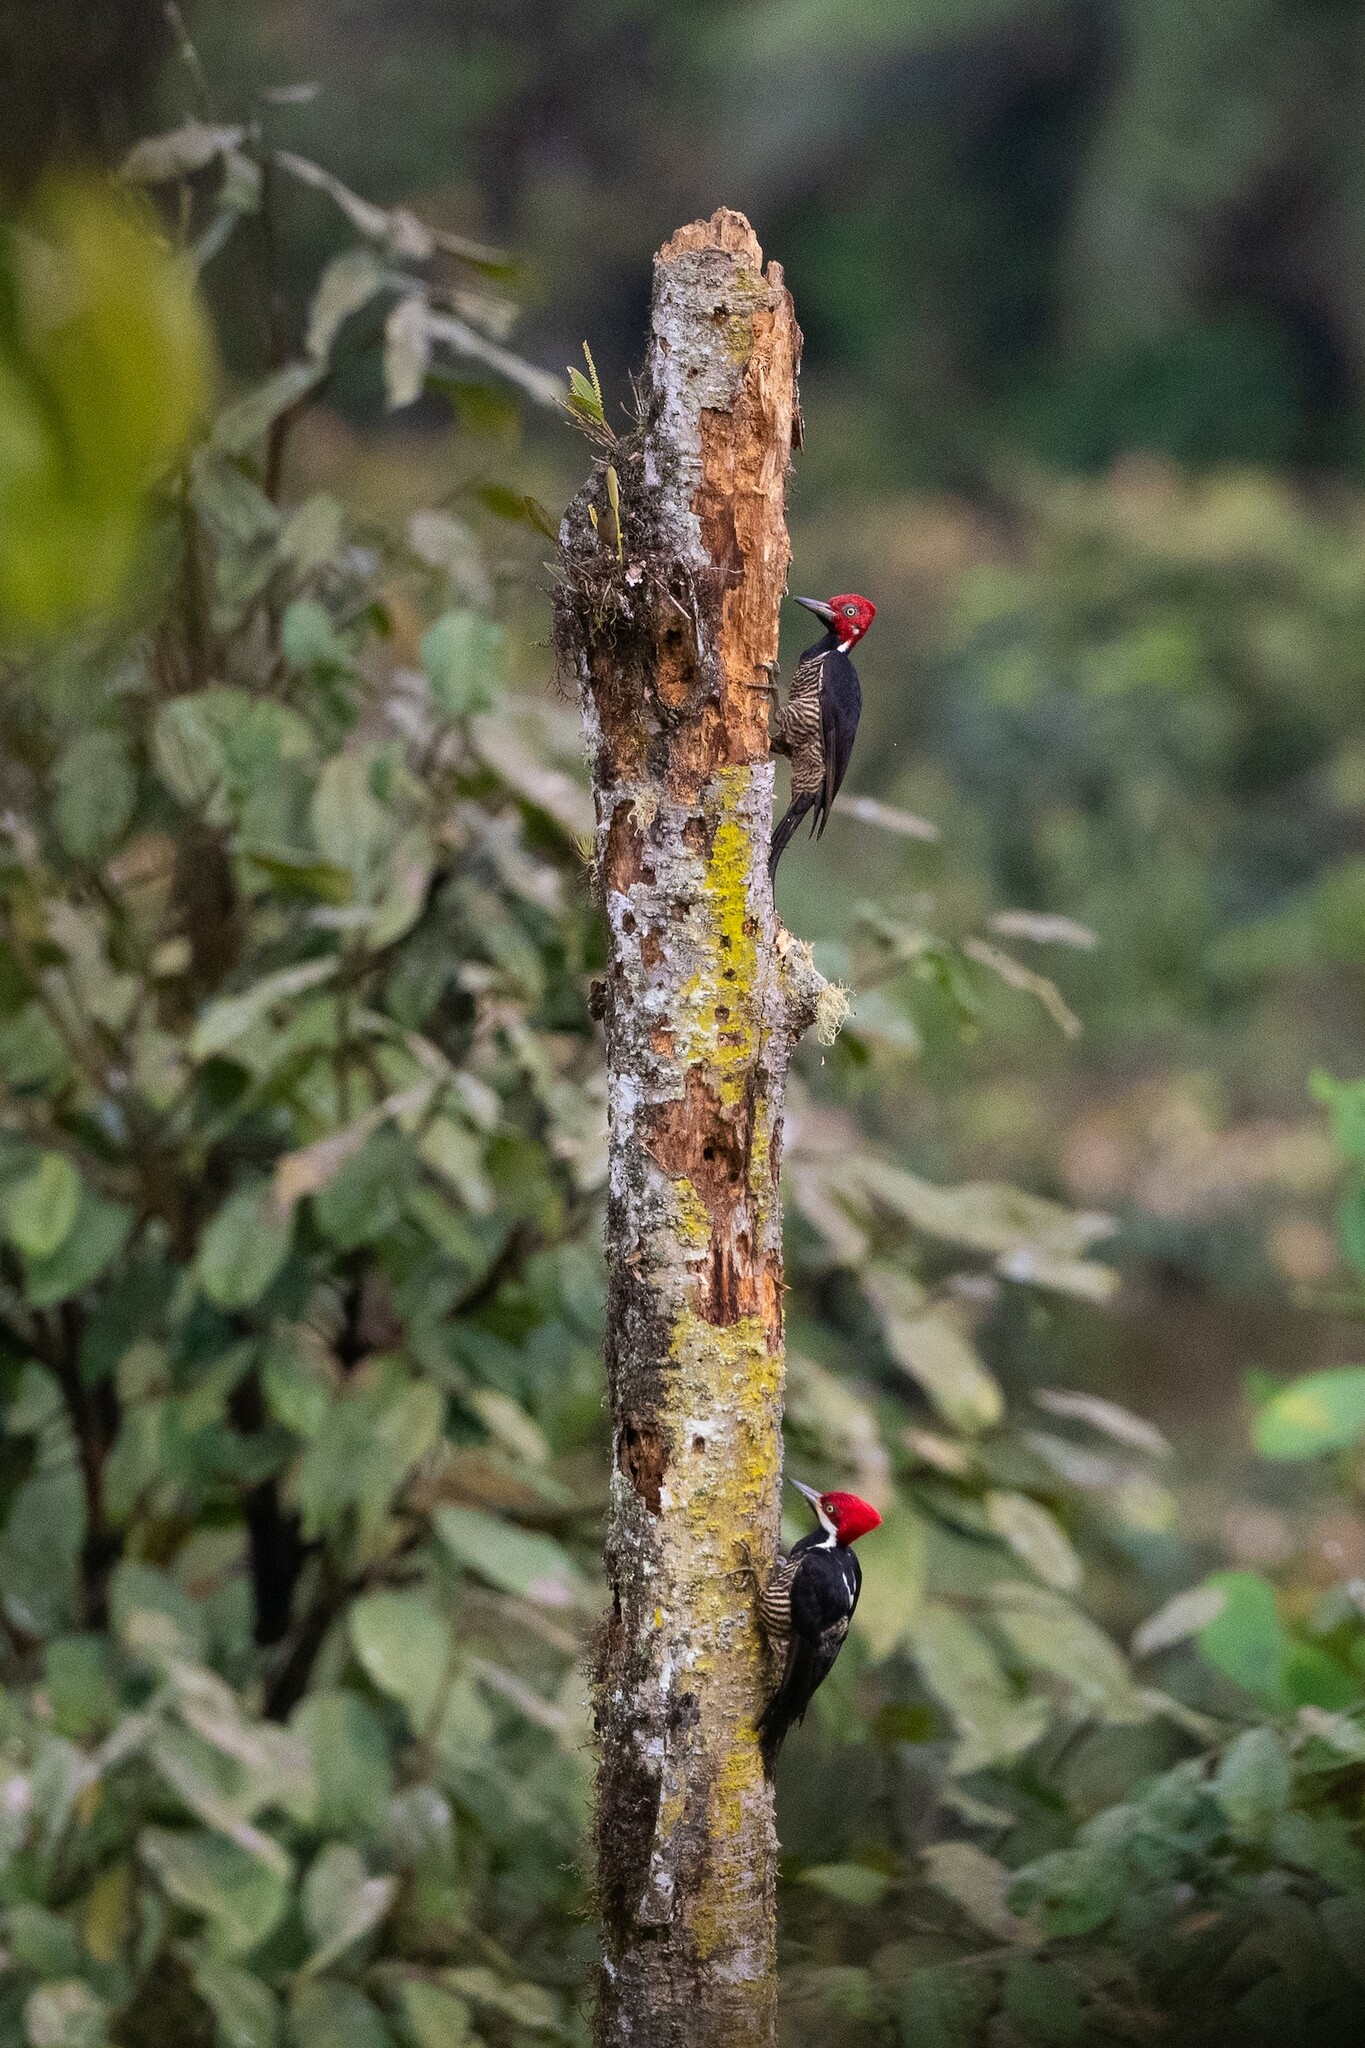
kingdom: Animalia
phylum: Chordata
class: Aves
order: Piciformes
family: Picidae
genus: Campephilus
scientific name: Campephilus gayaquilensis
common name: Guayaquil woodpecker
